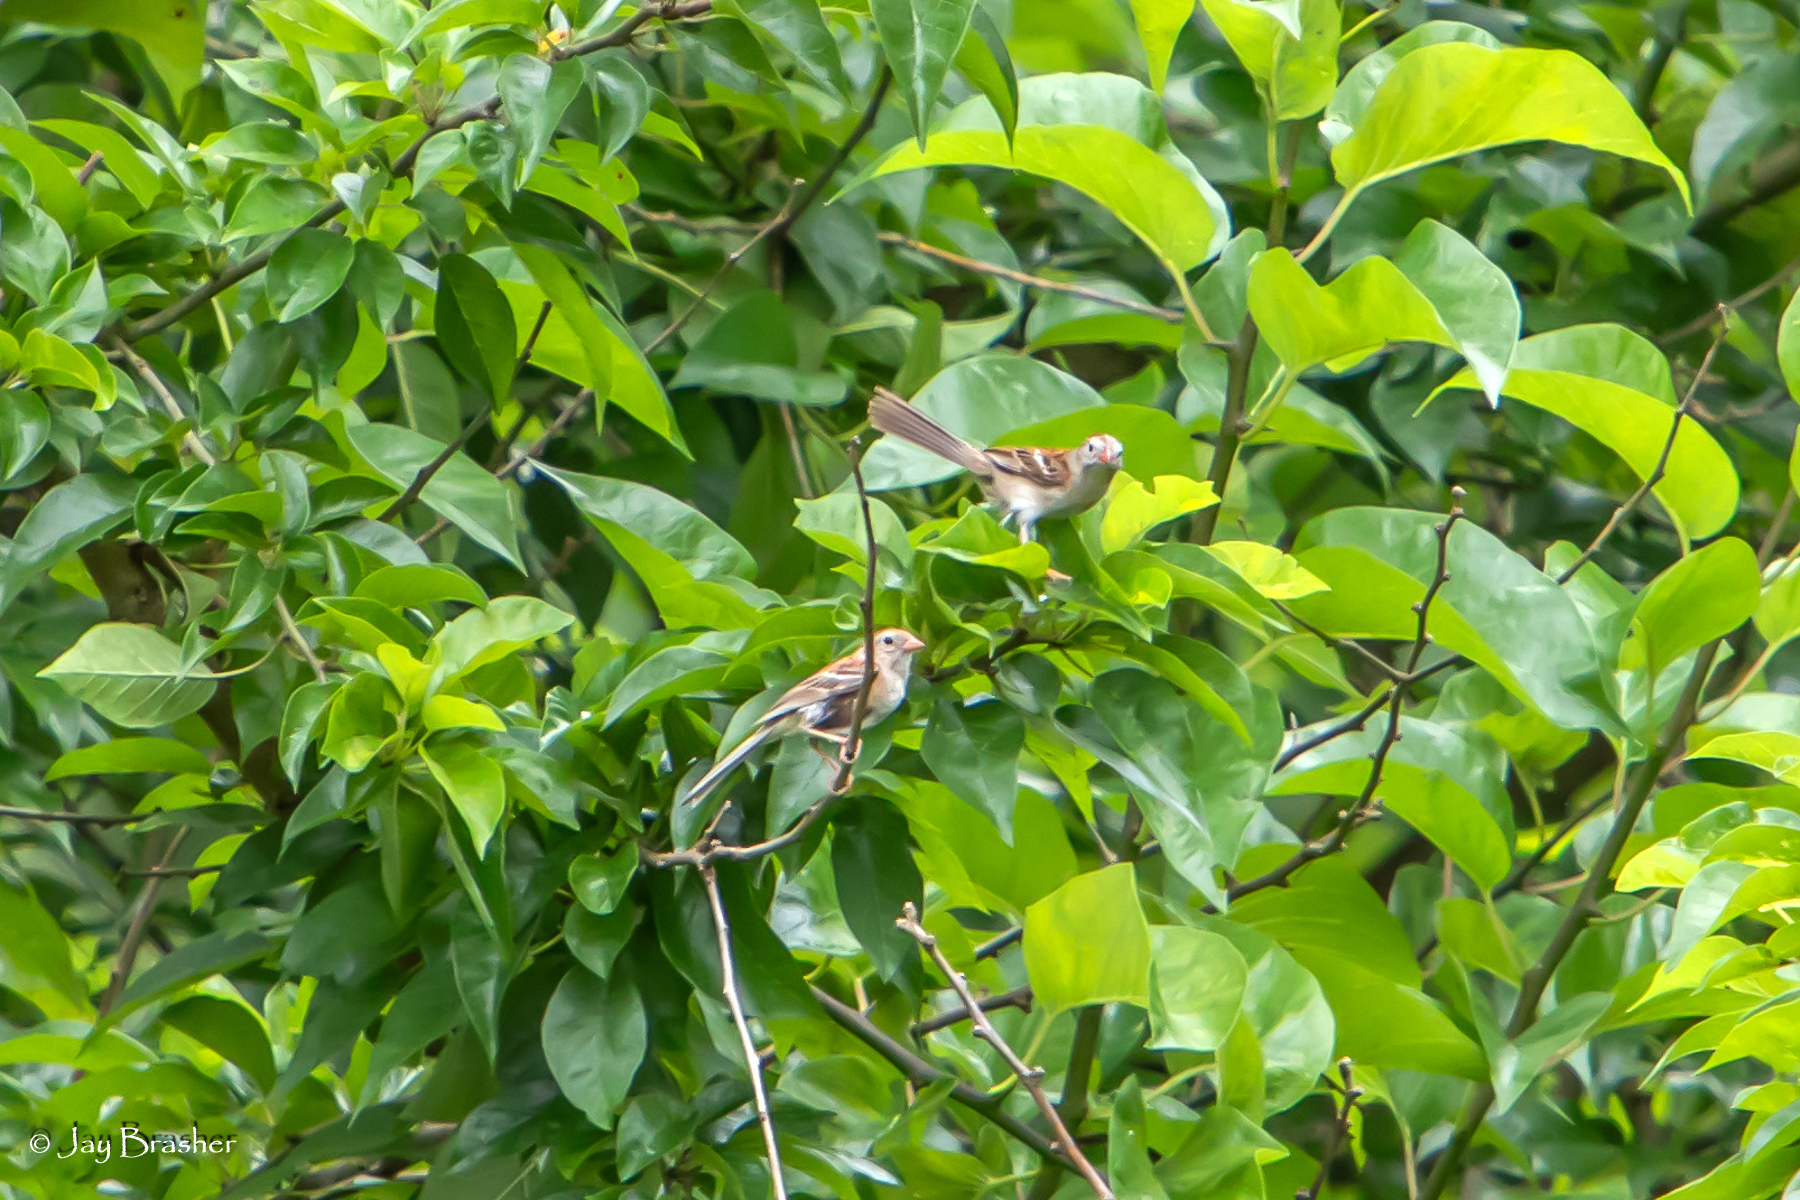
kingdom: Animalia
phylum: Chordata
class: Aves
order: Passeriformes
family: Passerellidae
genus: Spizella
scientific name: Spizella pusilla
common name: Field sparrow
